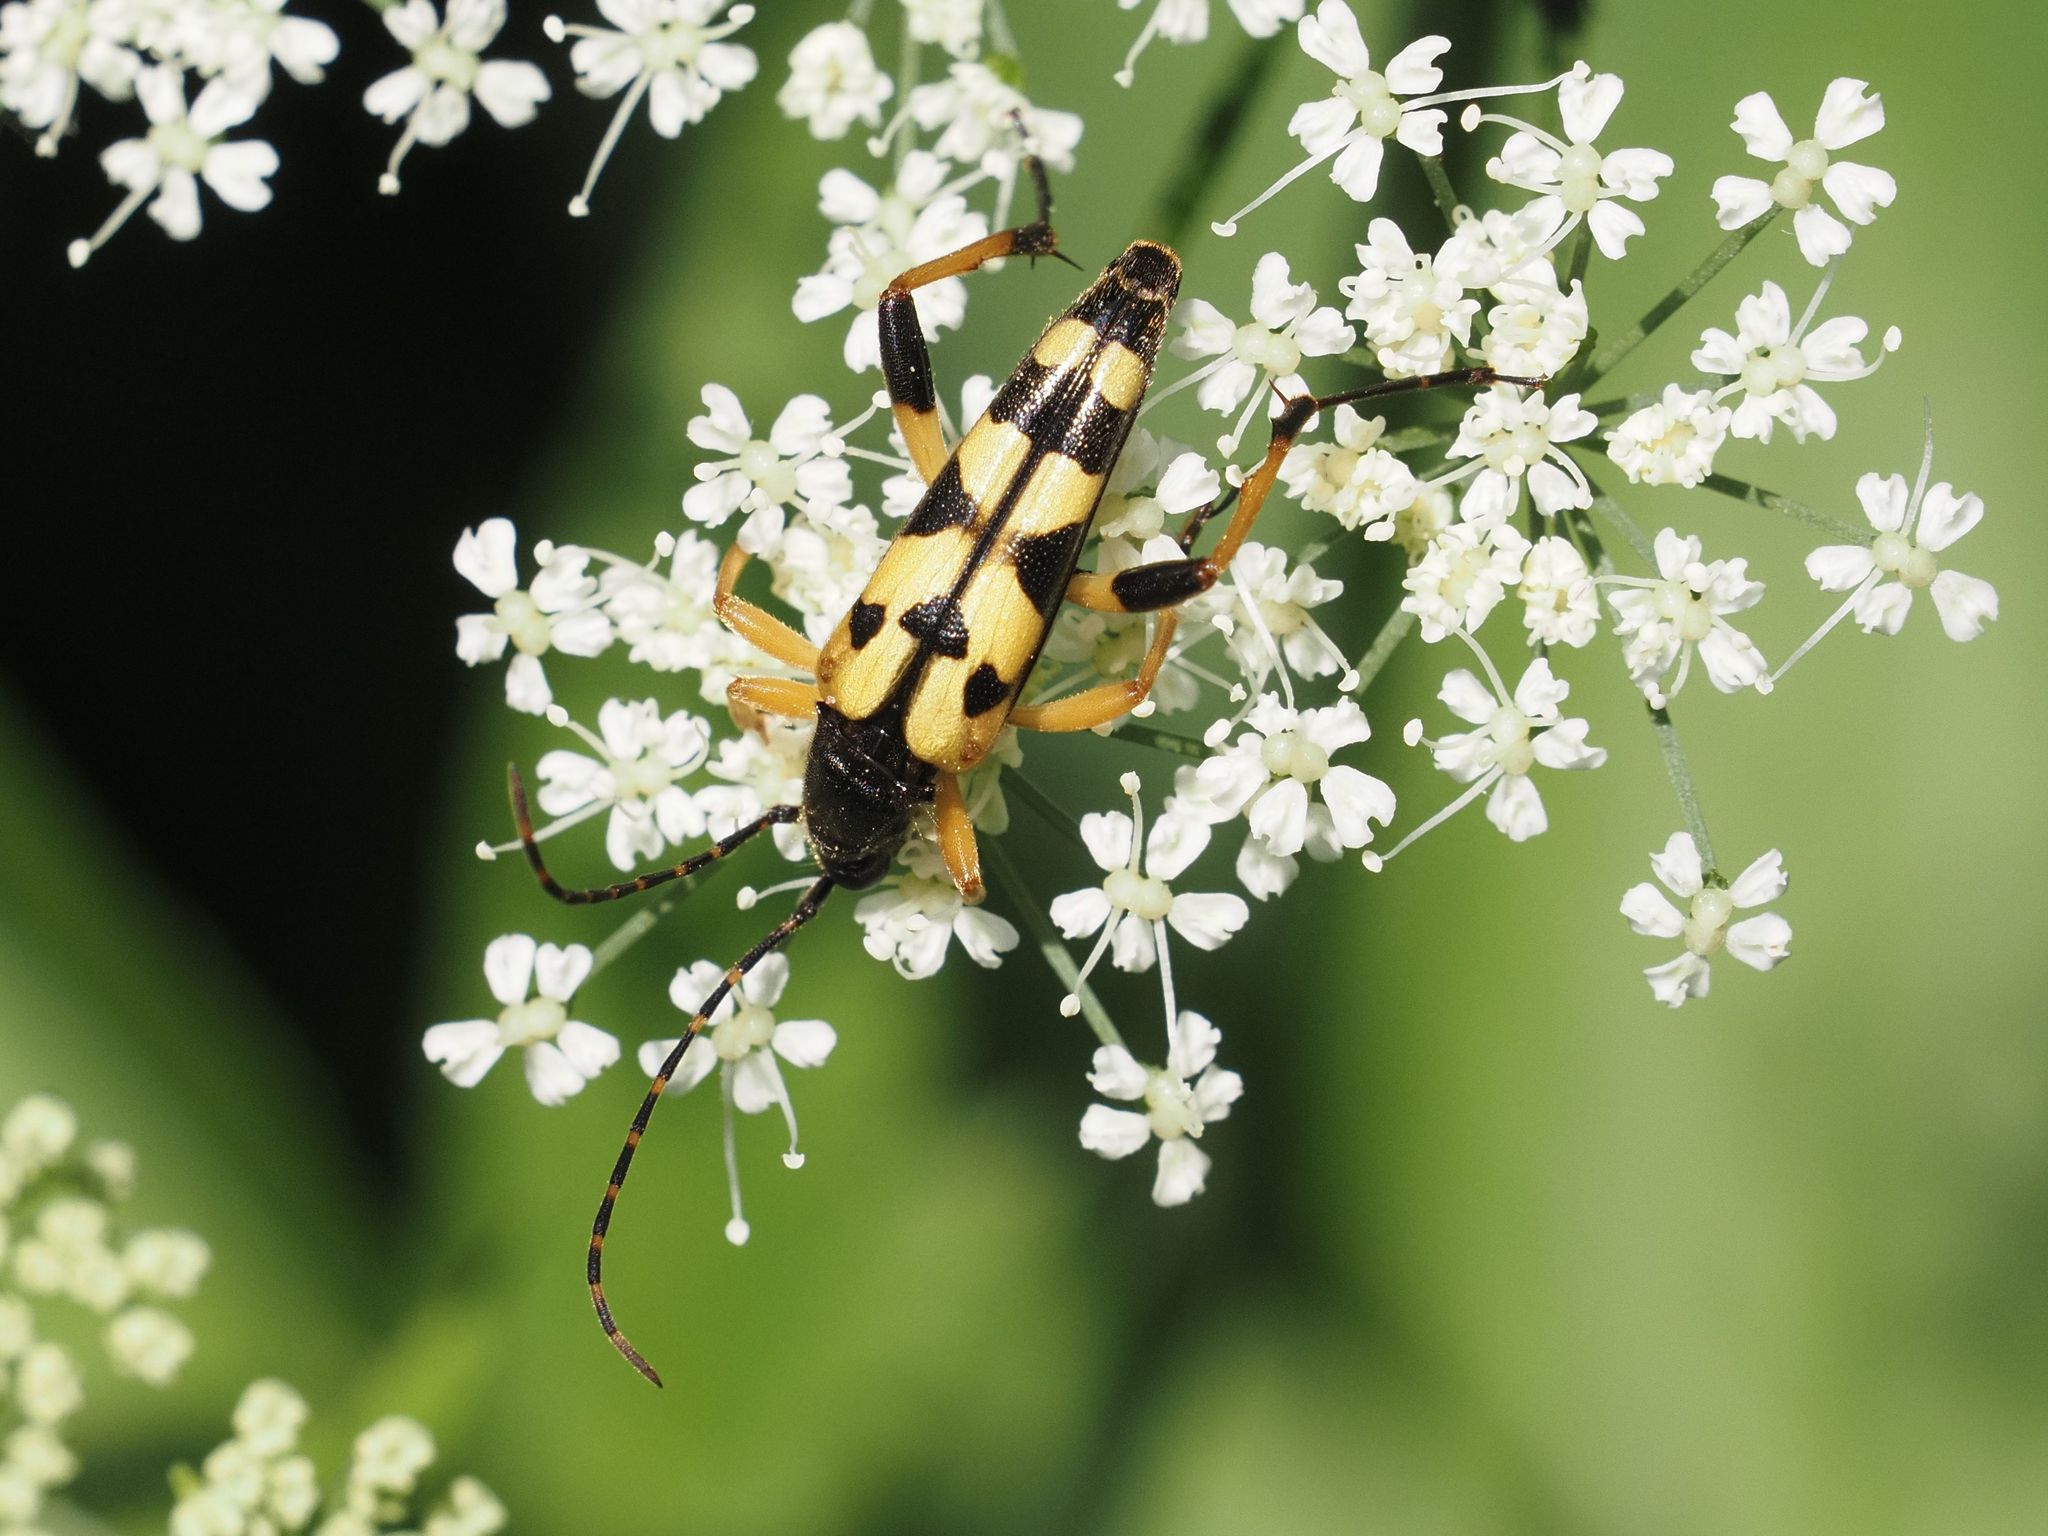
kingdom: Animalia
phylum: Arthropoda
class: Insecta
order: Coleoptera
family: Cerambycidae
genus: Rutpela
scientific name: Rutpela maculata
